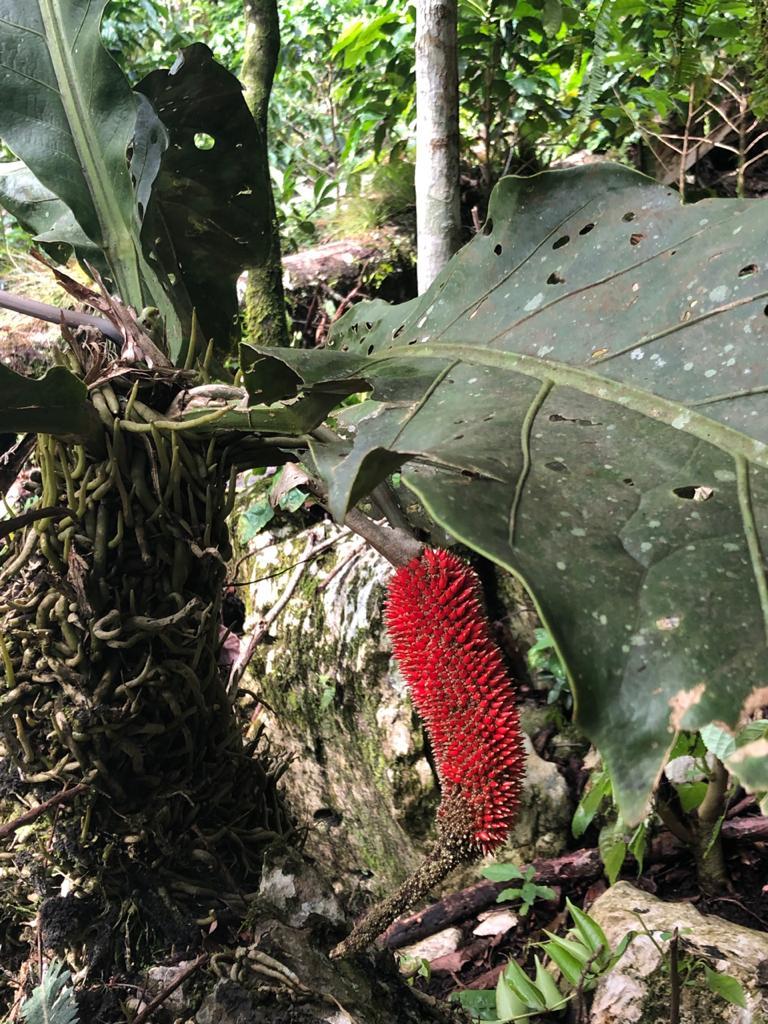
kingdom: Plantae
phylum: Tracheophyta
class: Liliopsida
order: Alismatales
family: Araceae
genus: Anthurium
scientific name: Anthurium schlechtendalii
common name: Laceleaf
